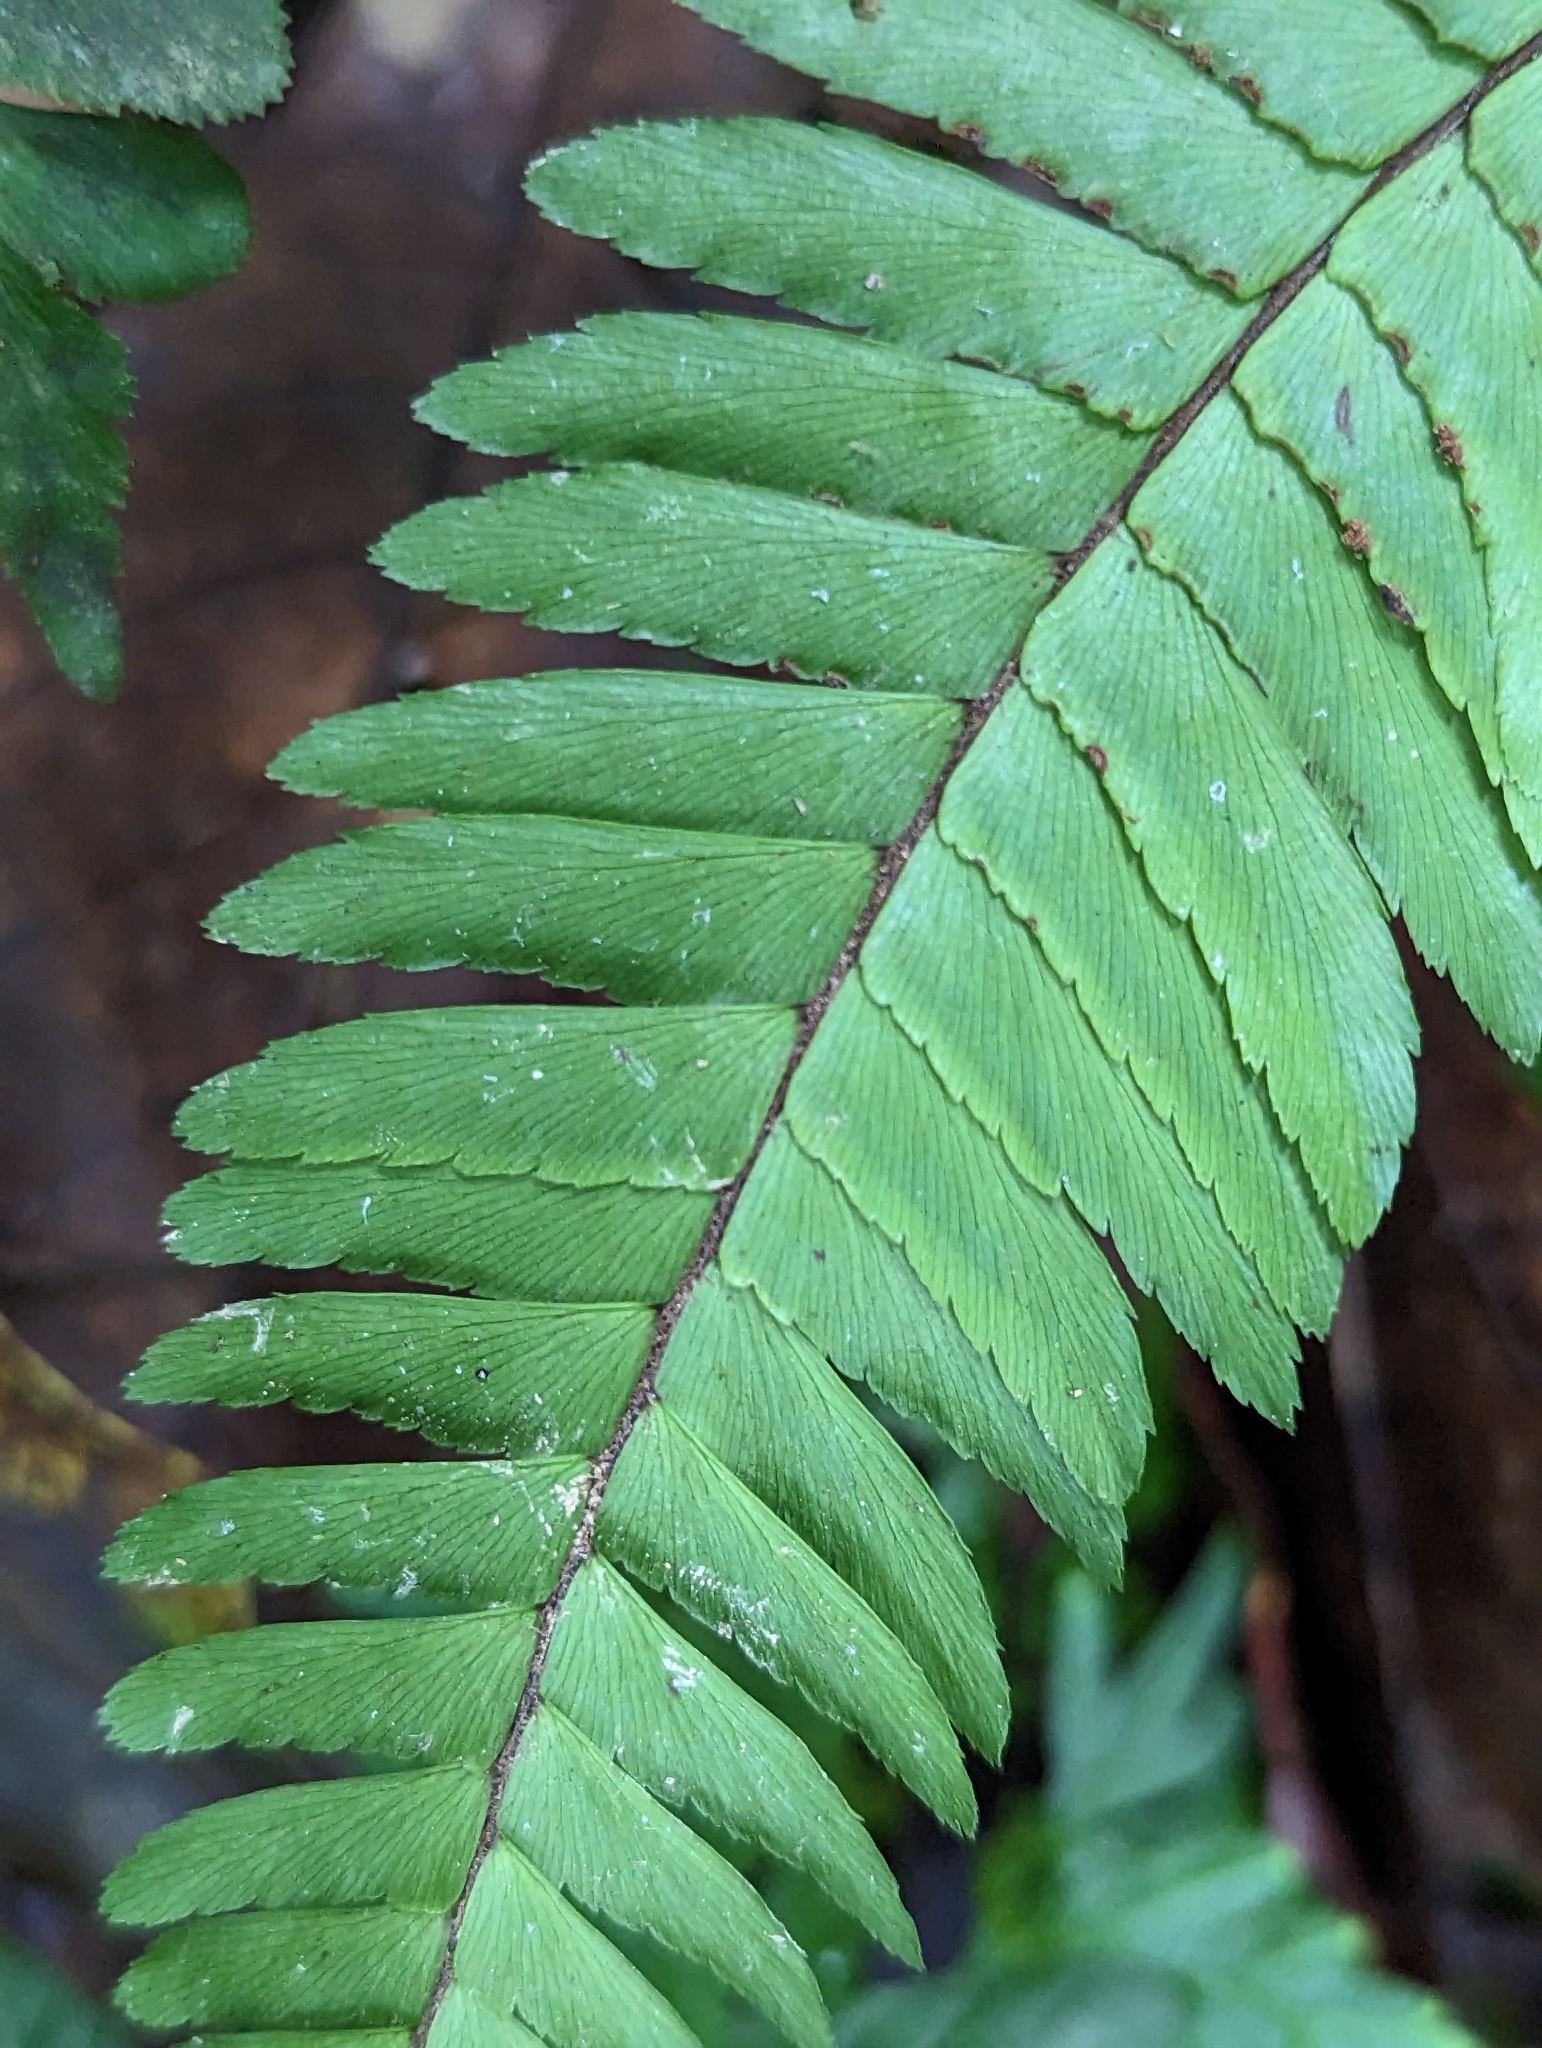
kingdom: Plantae
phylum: Tracheophyta
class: Polypodiopsida
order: Polypodiales
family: Pteridaceae
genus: Adiantum
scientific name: Adiantum tetraphyllum
